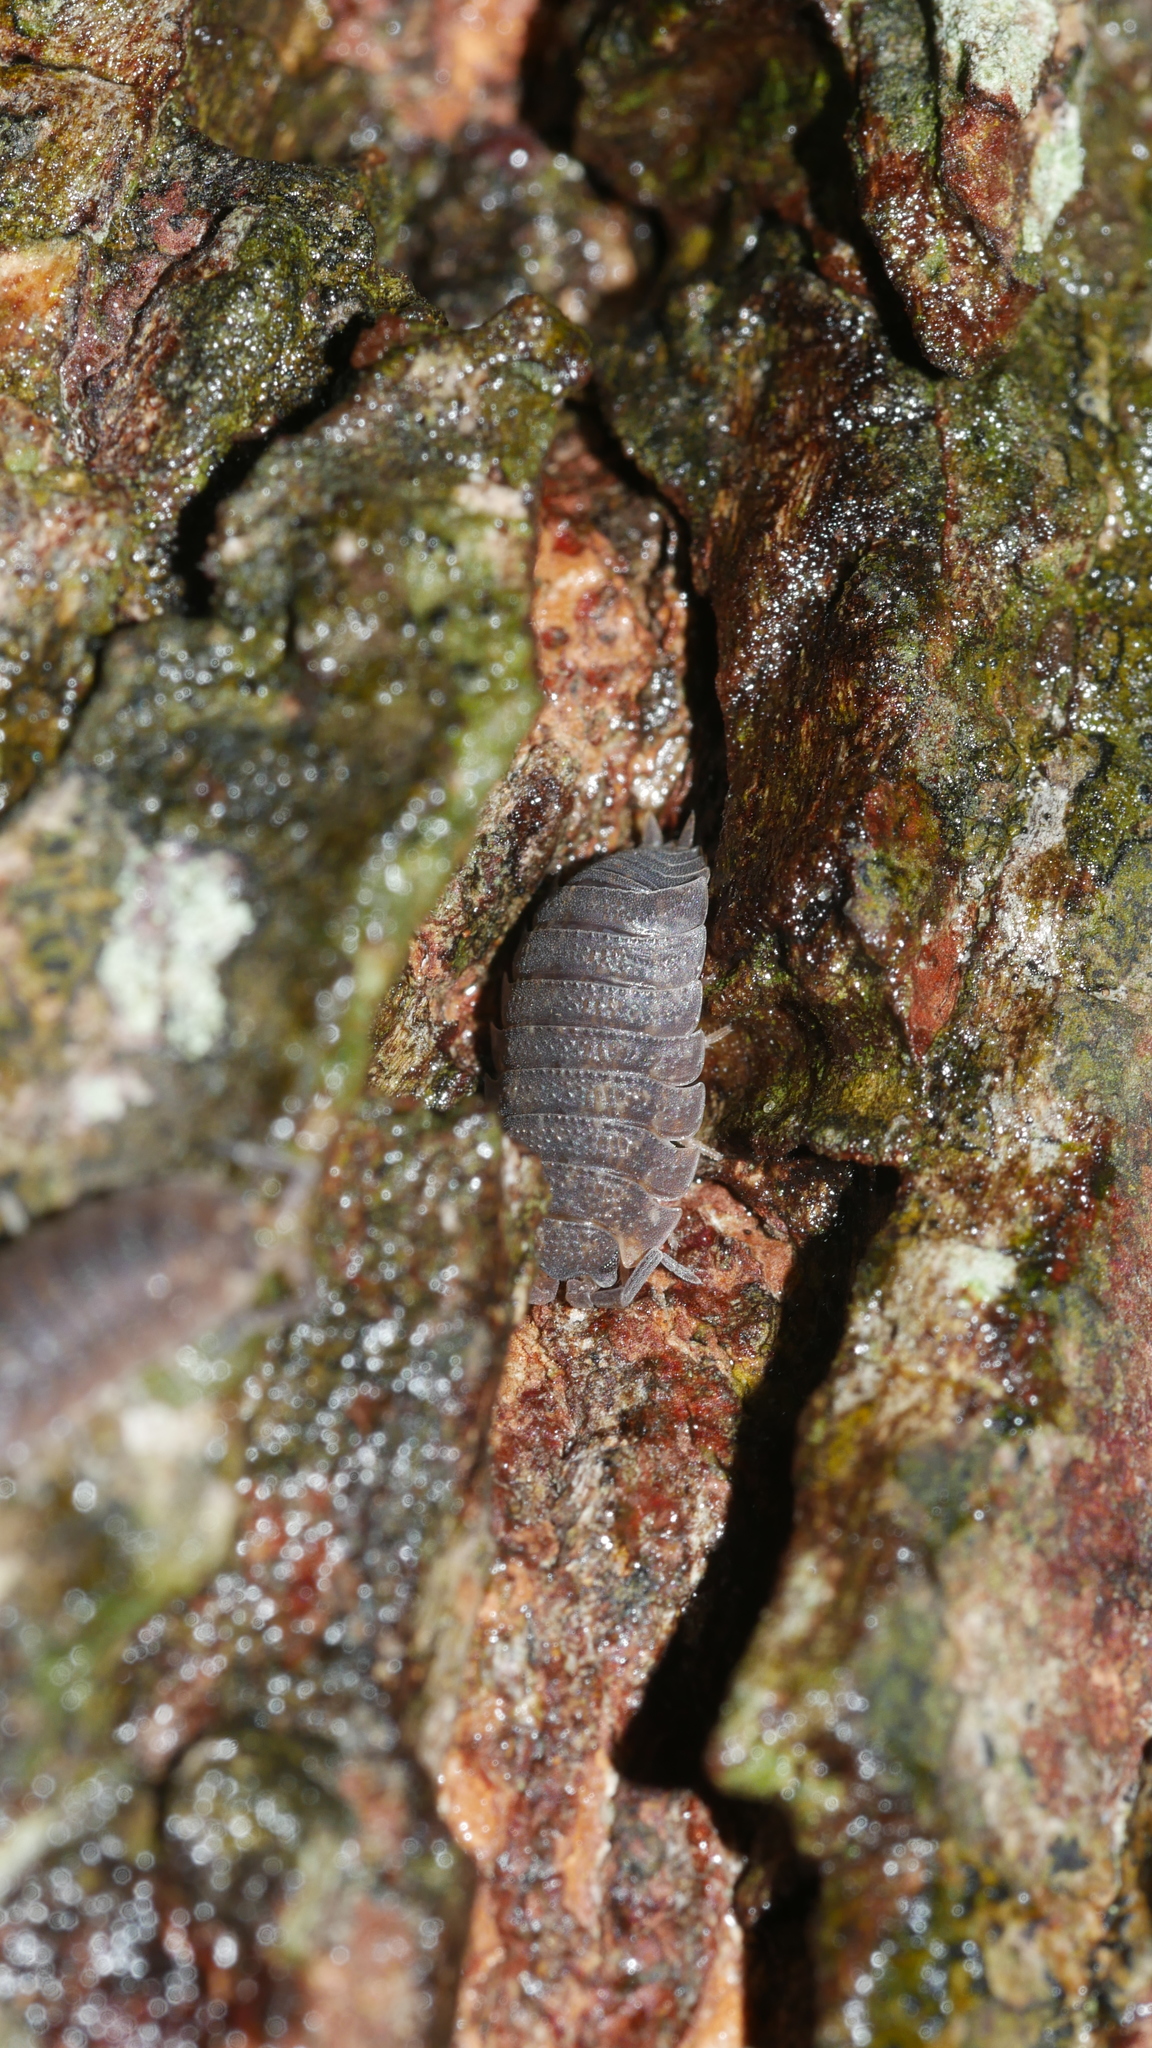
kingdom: Animalia
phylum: Arthropoda
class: Malacostraca
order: Isopoda
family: Porcellionidae
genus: Porcellio
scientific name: Porcellio scaber
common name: Common rough woodlouse
